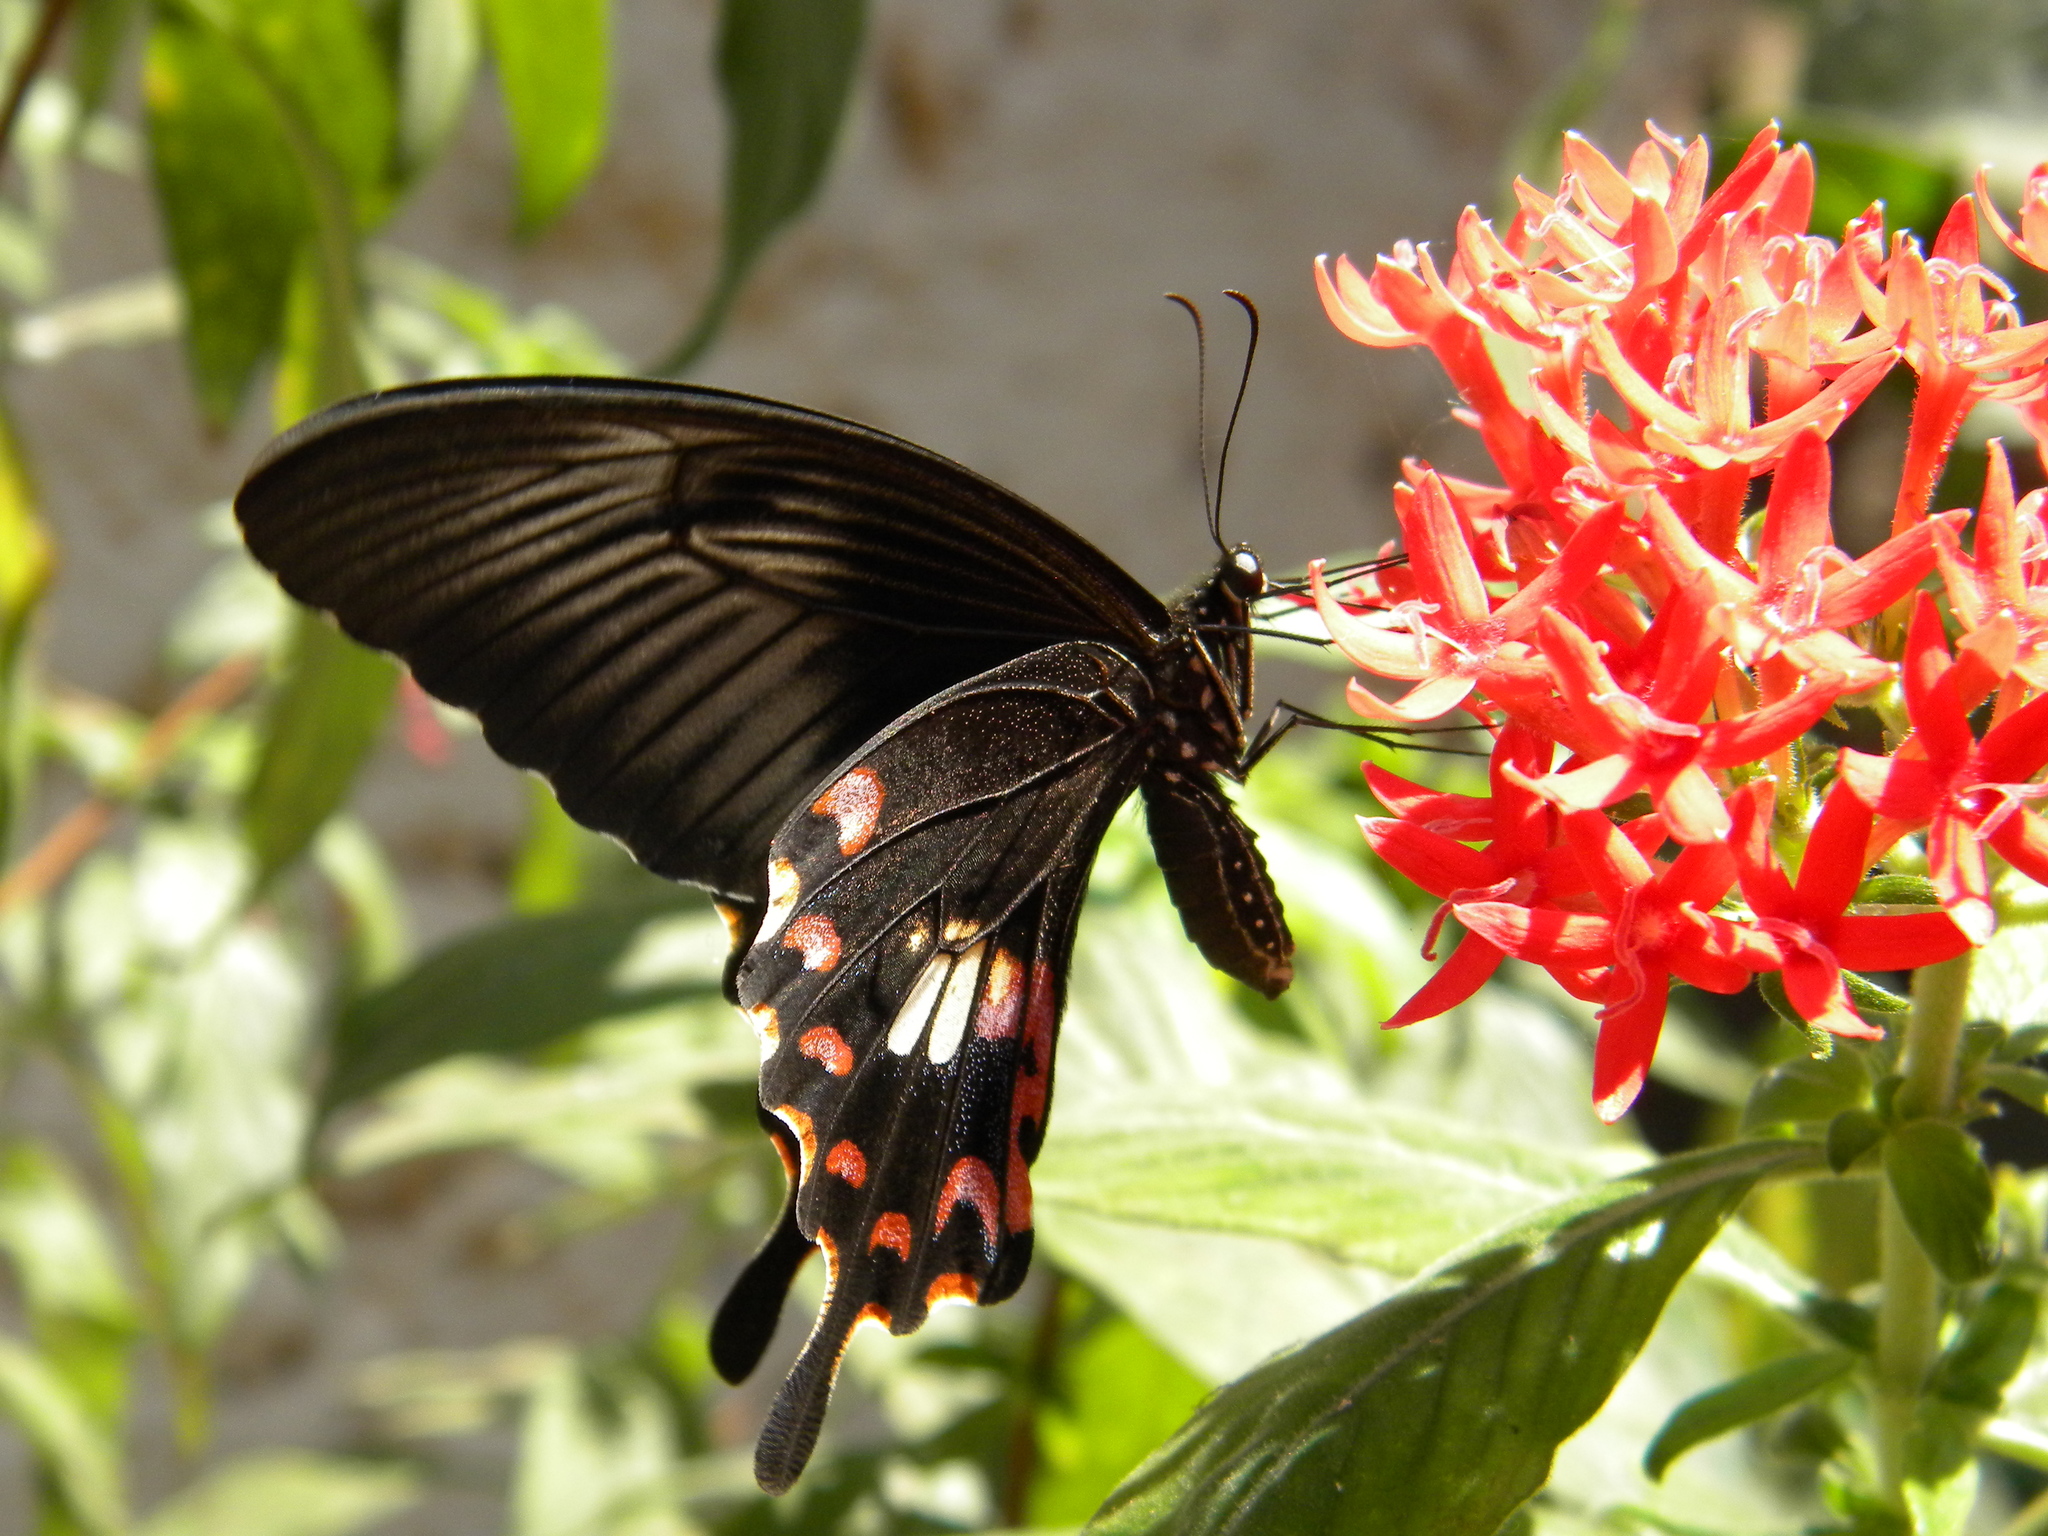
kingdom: Animalia
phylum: Arthropoda
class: Insecta
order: Lepidoptera
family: Papilionidae
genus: Papilio
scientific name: Papilio polytes
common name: Common mormon
